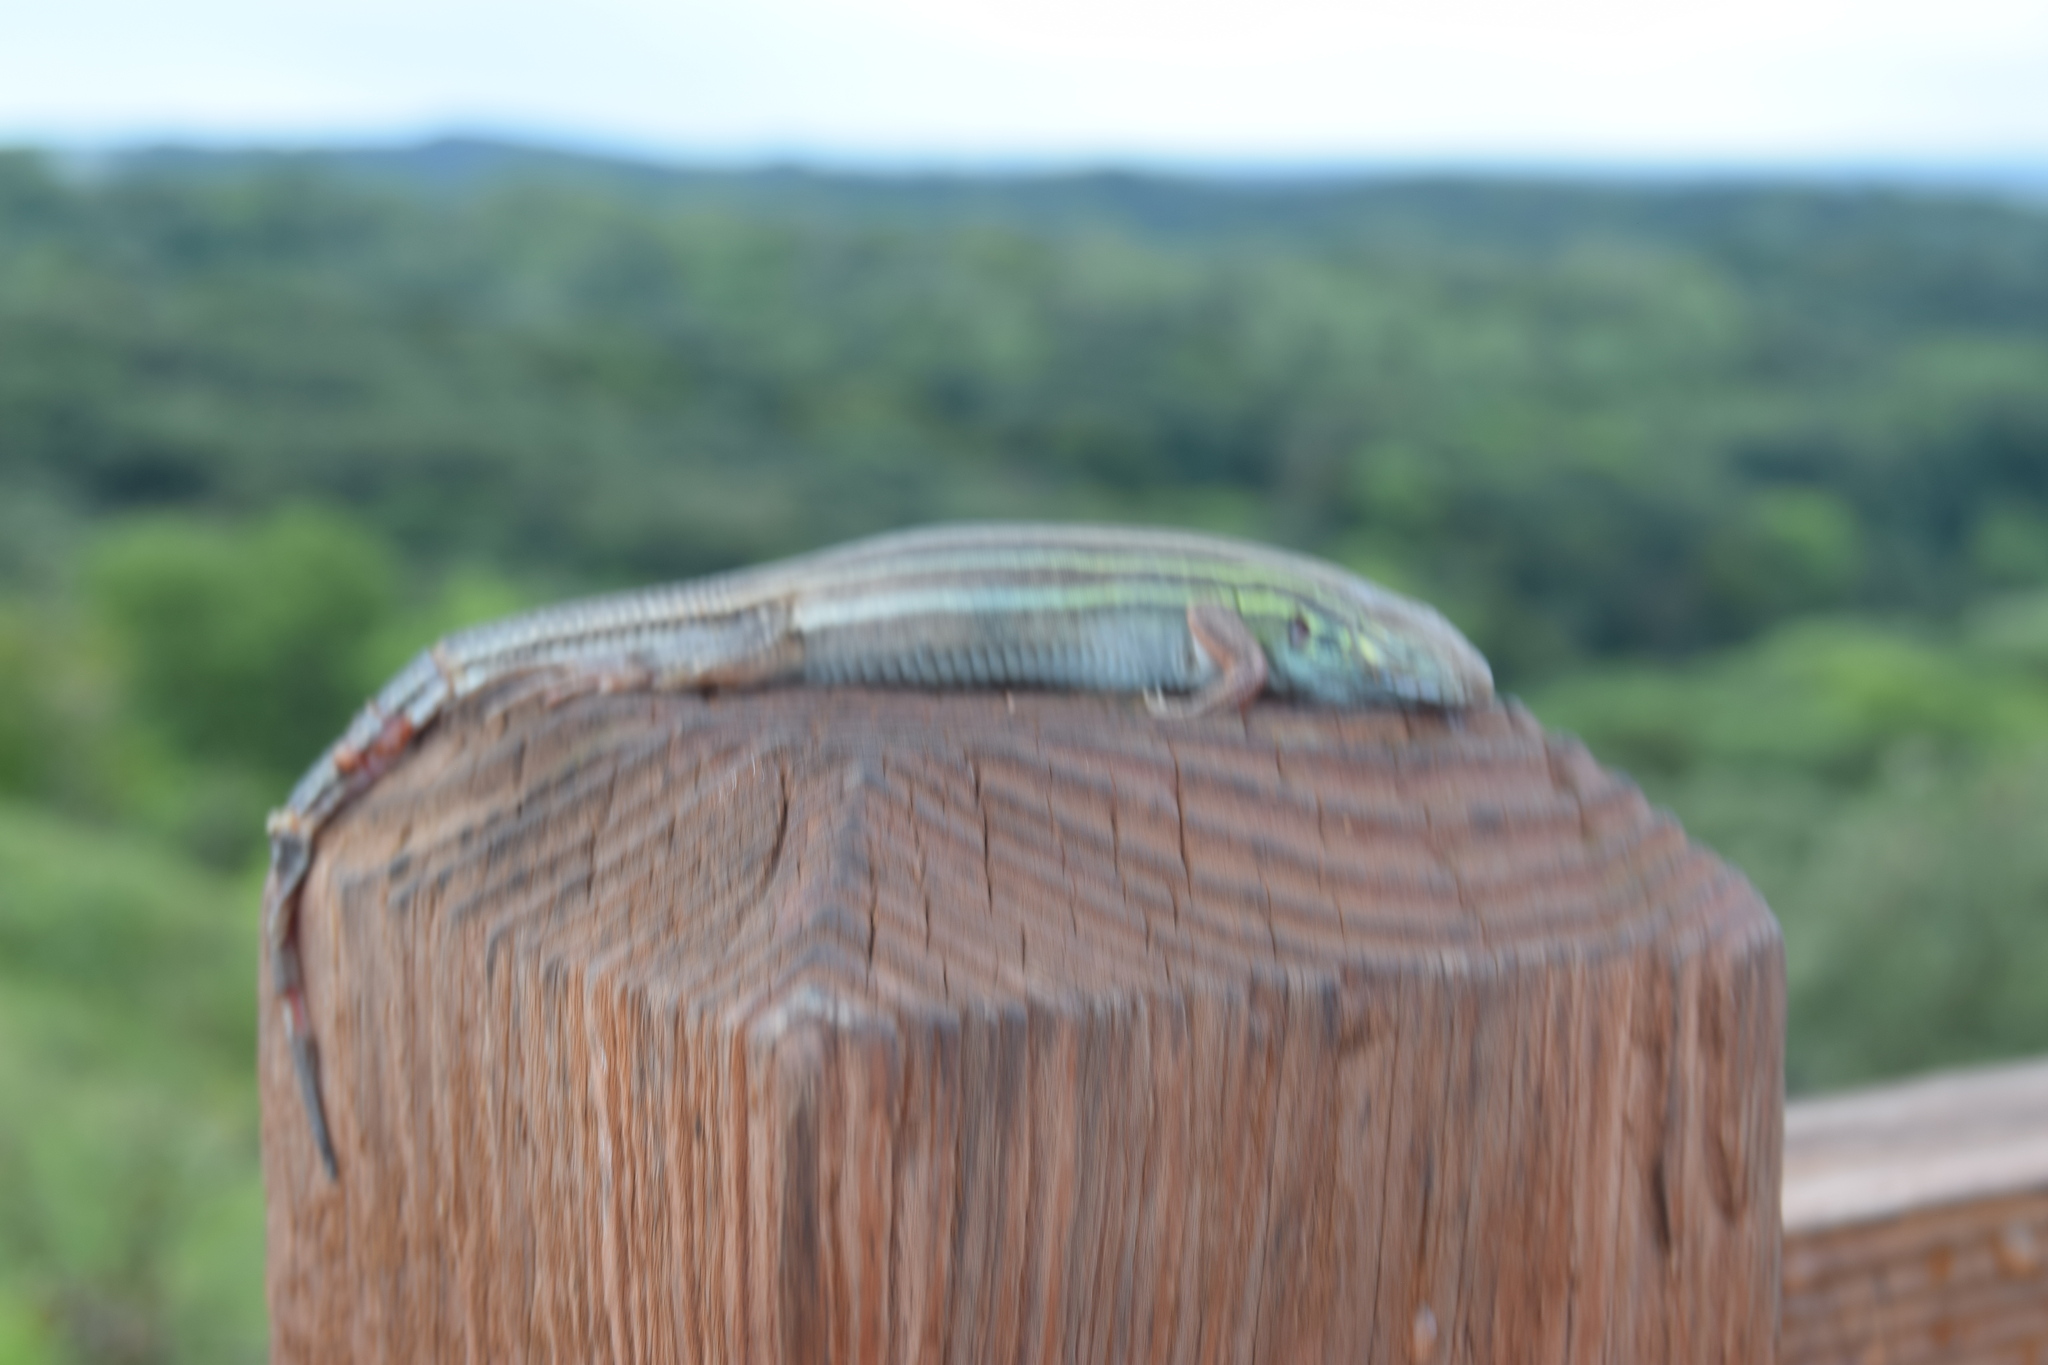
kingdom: Animalia
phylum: Chordata
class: Squamata
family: Teiidae
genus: Aspidoscelis
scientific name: Aspidoscelis sexlineatus
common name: Six-lined racerunner
